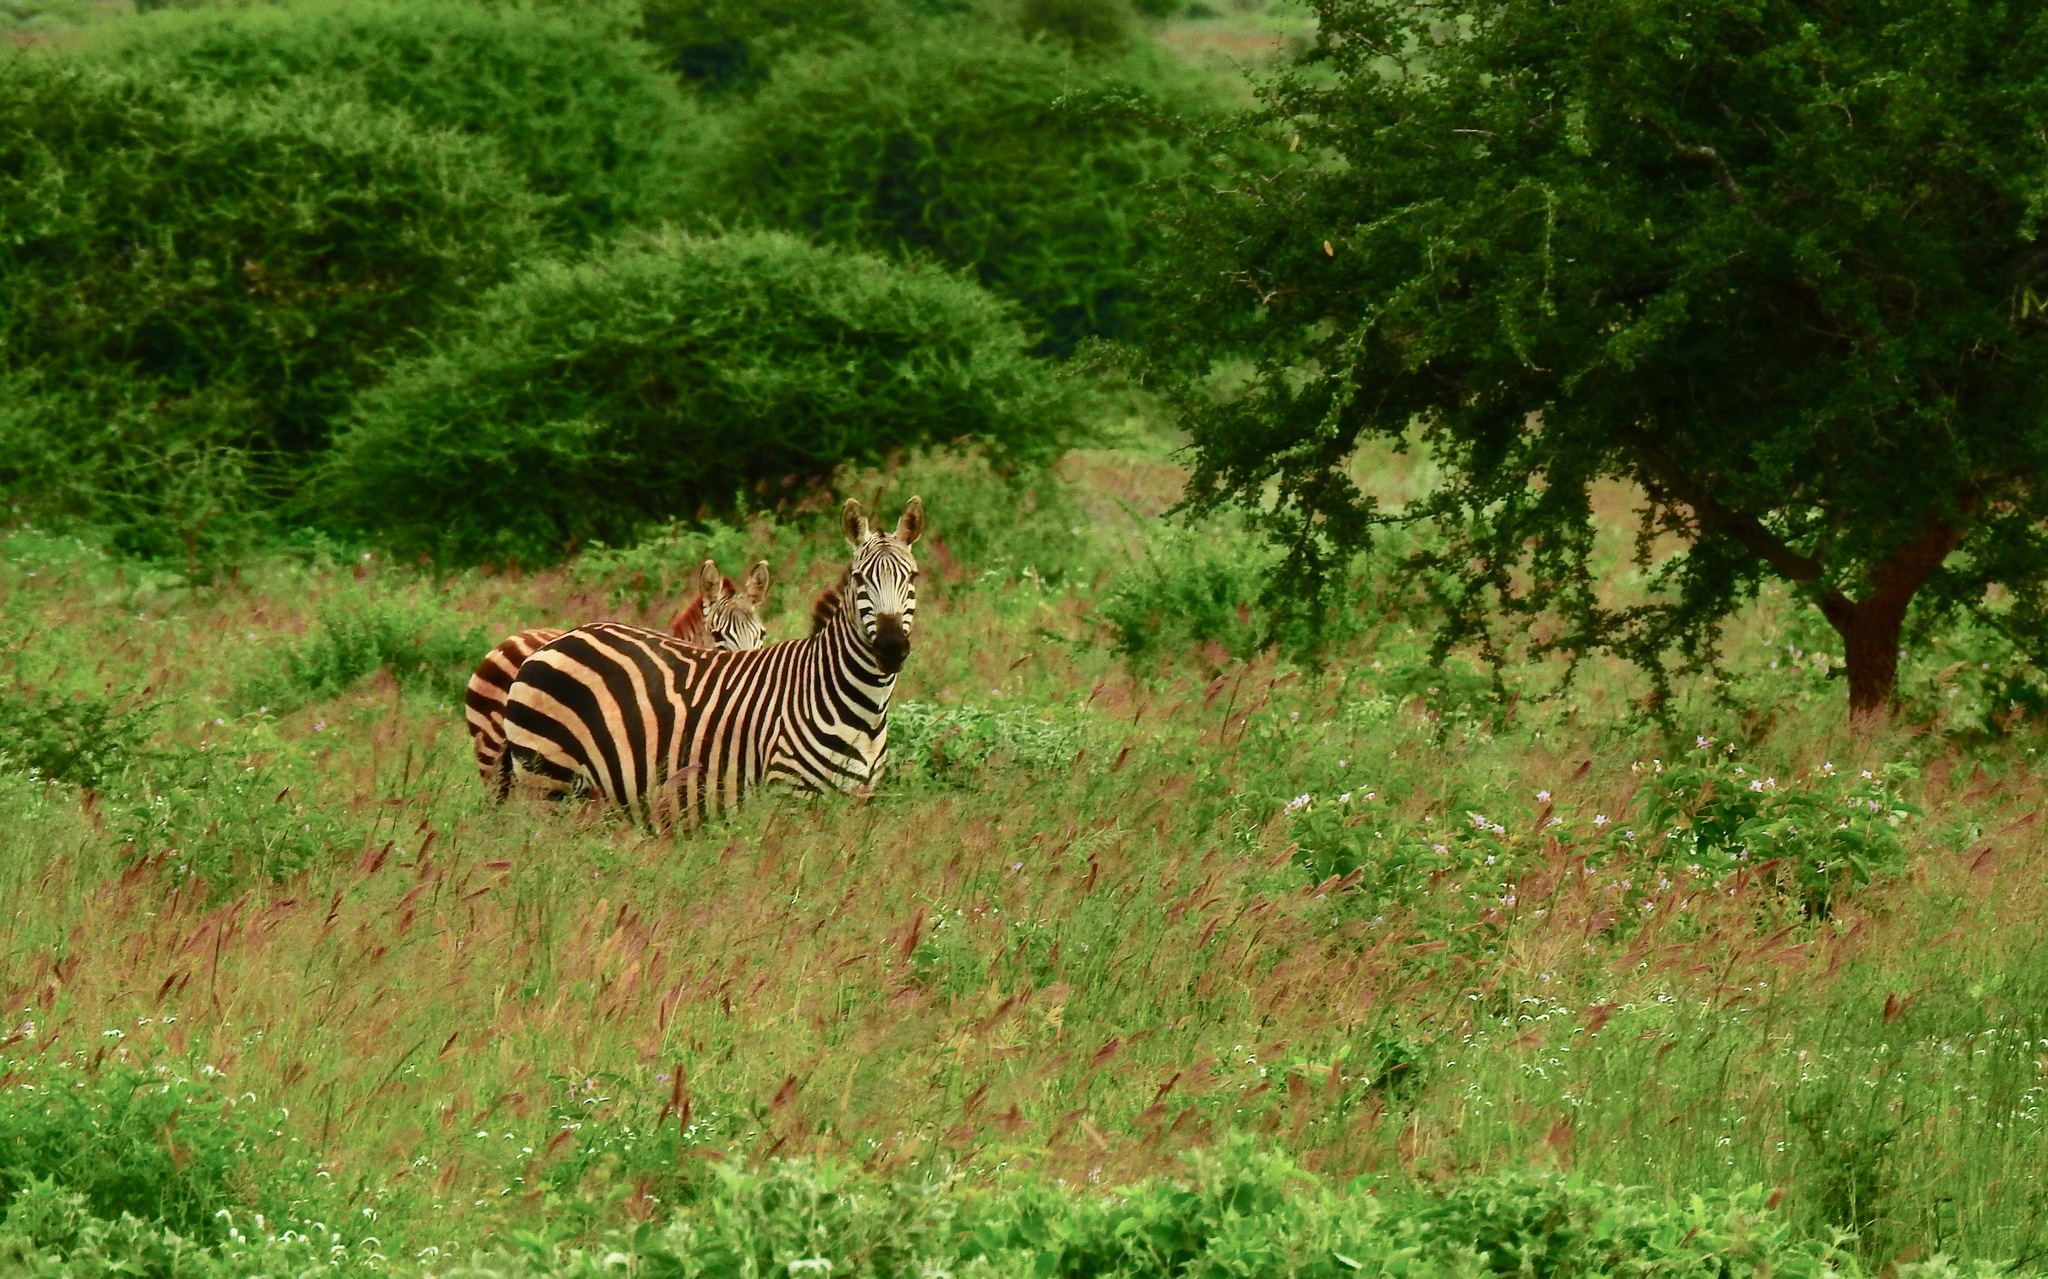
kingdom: Animalia
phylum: Chordata
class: Mammalia
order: Perissodactyla
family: Equidae
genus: Equus
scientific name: Equus quagga
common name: Plains zebra
